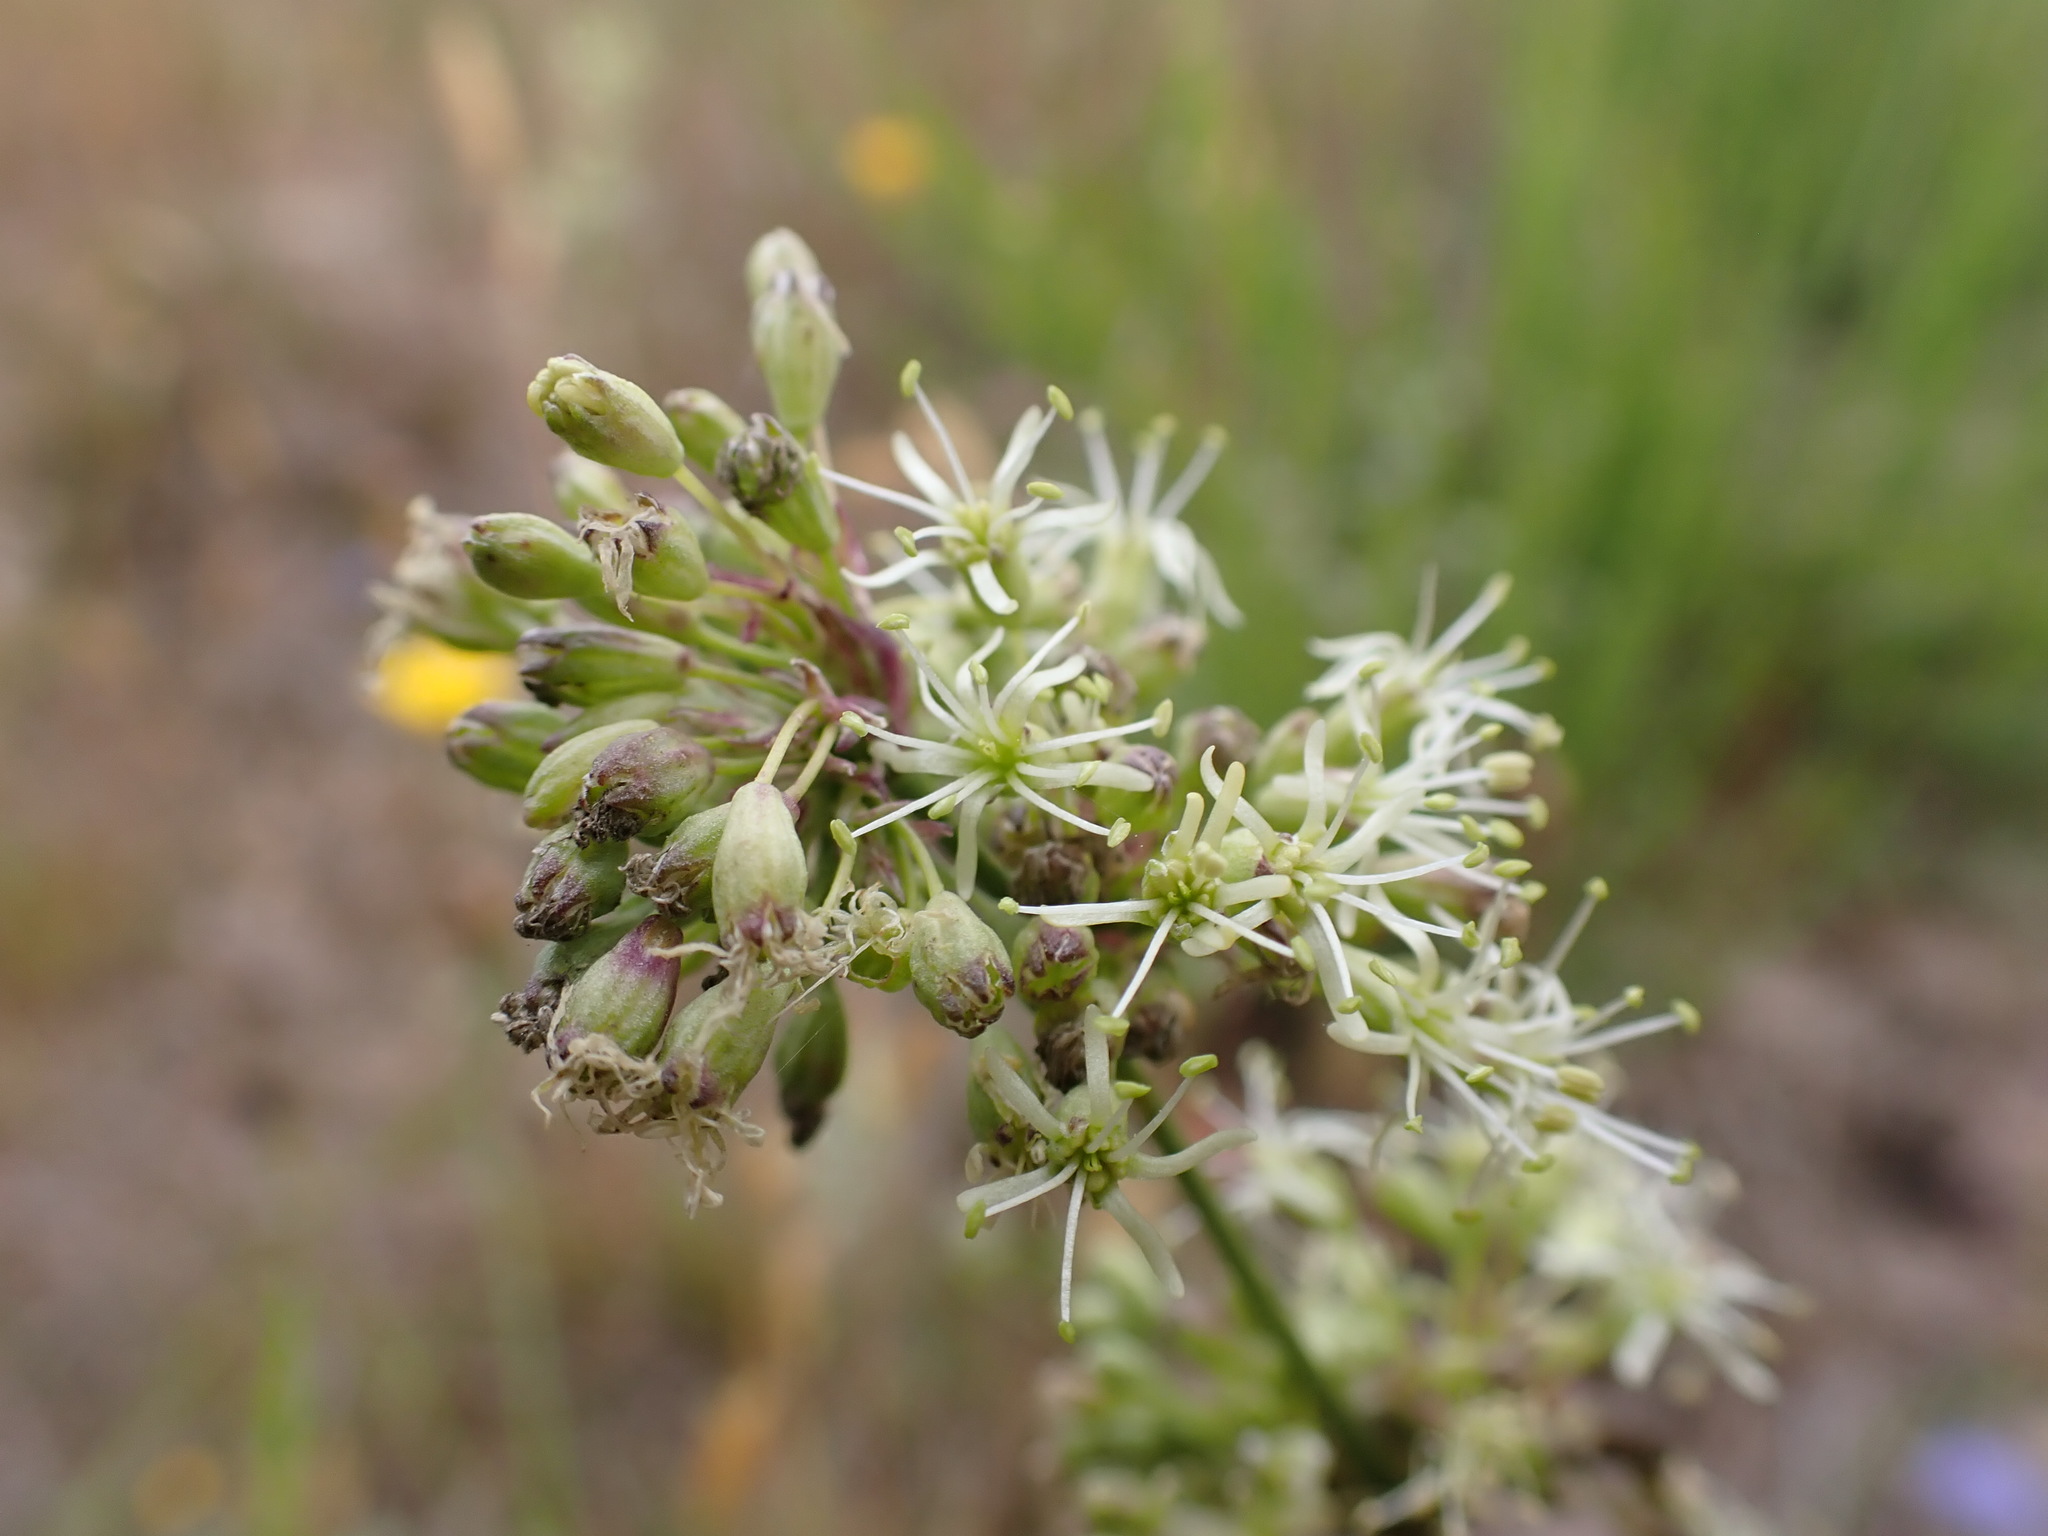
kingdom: Plantae
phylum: Tracheophyta
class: Magnoliopsida
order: Caryophyllales
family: Caryophyllaceae
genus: Silene
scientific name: Silene otites
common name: Spanish catchfly
